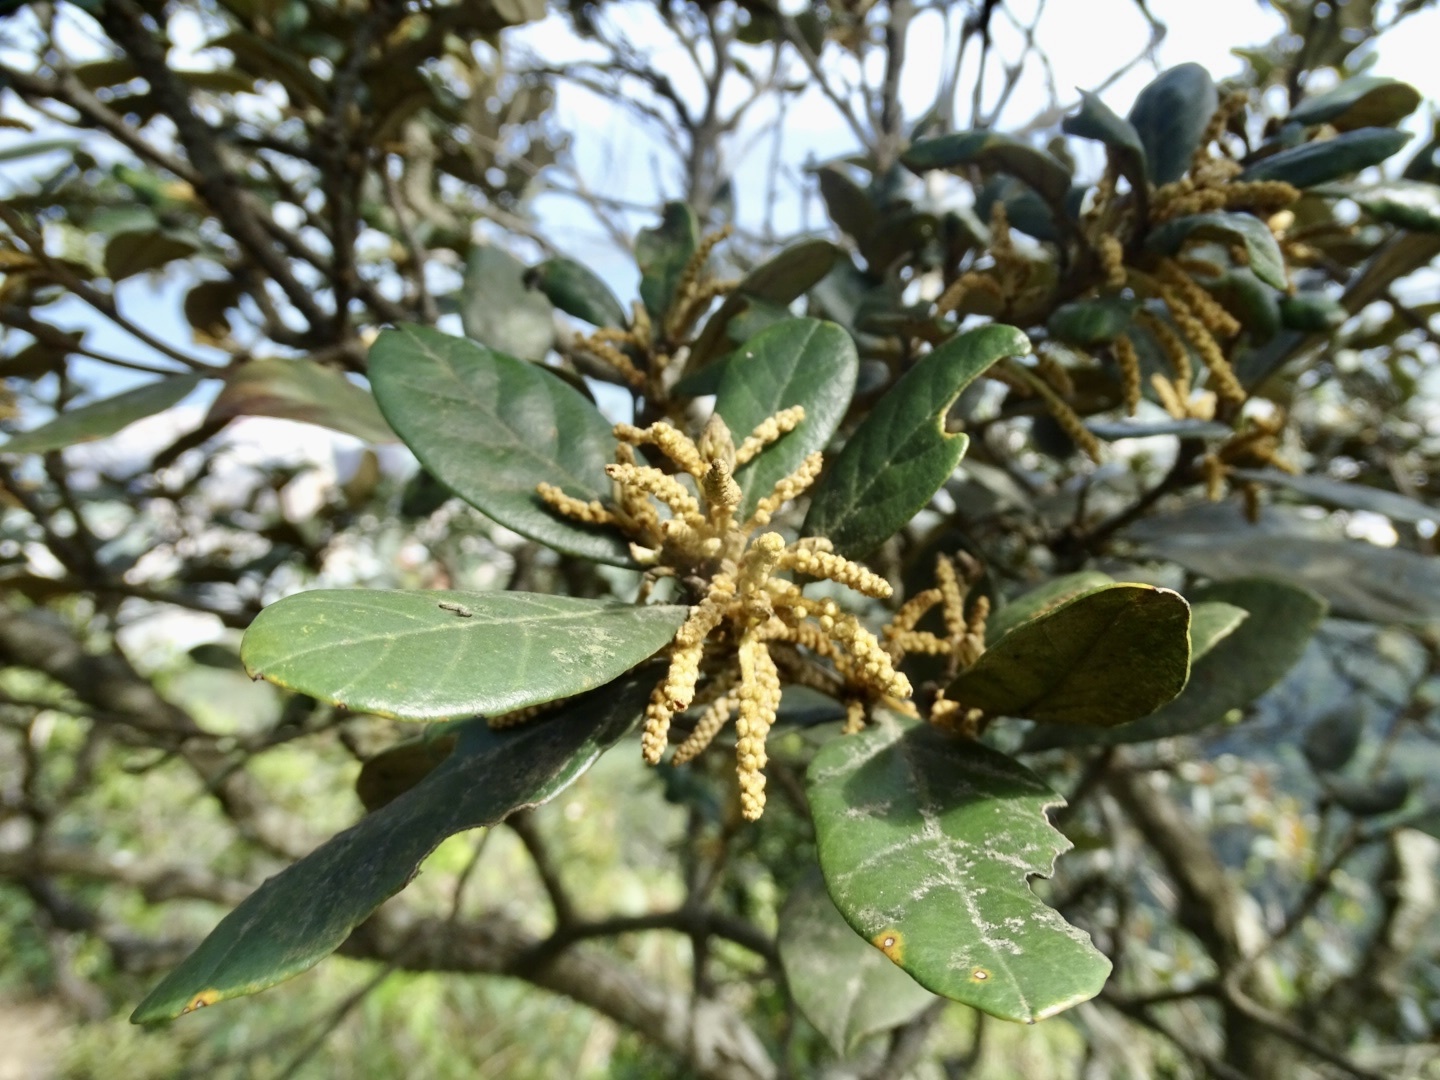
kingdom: Plantae
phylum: Tracheophyta
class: Magnoliopsida
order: Fagales
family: Fagaceae
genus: Quercus
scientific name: Quercus championii
